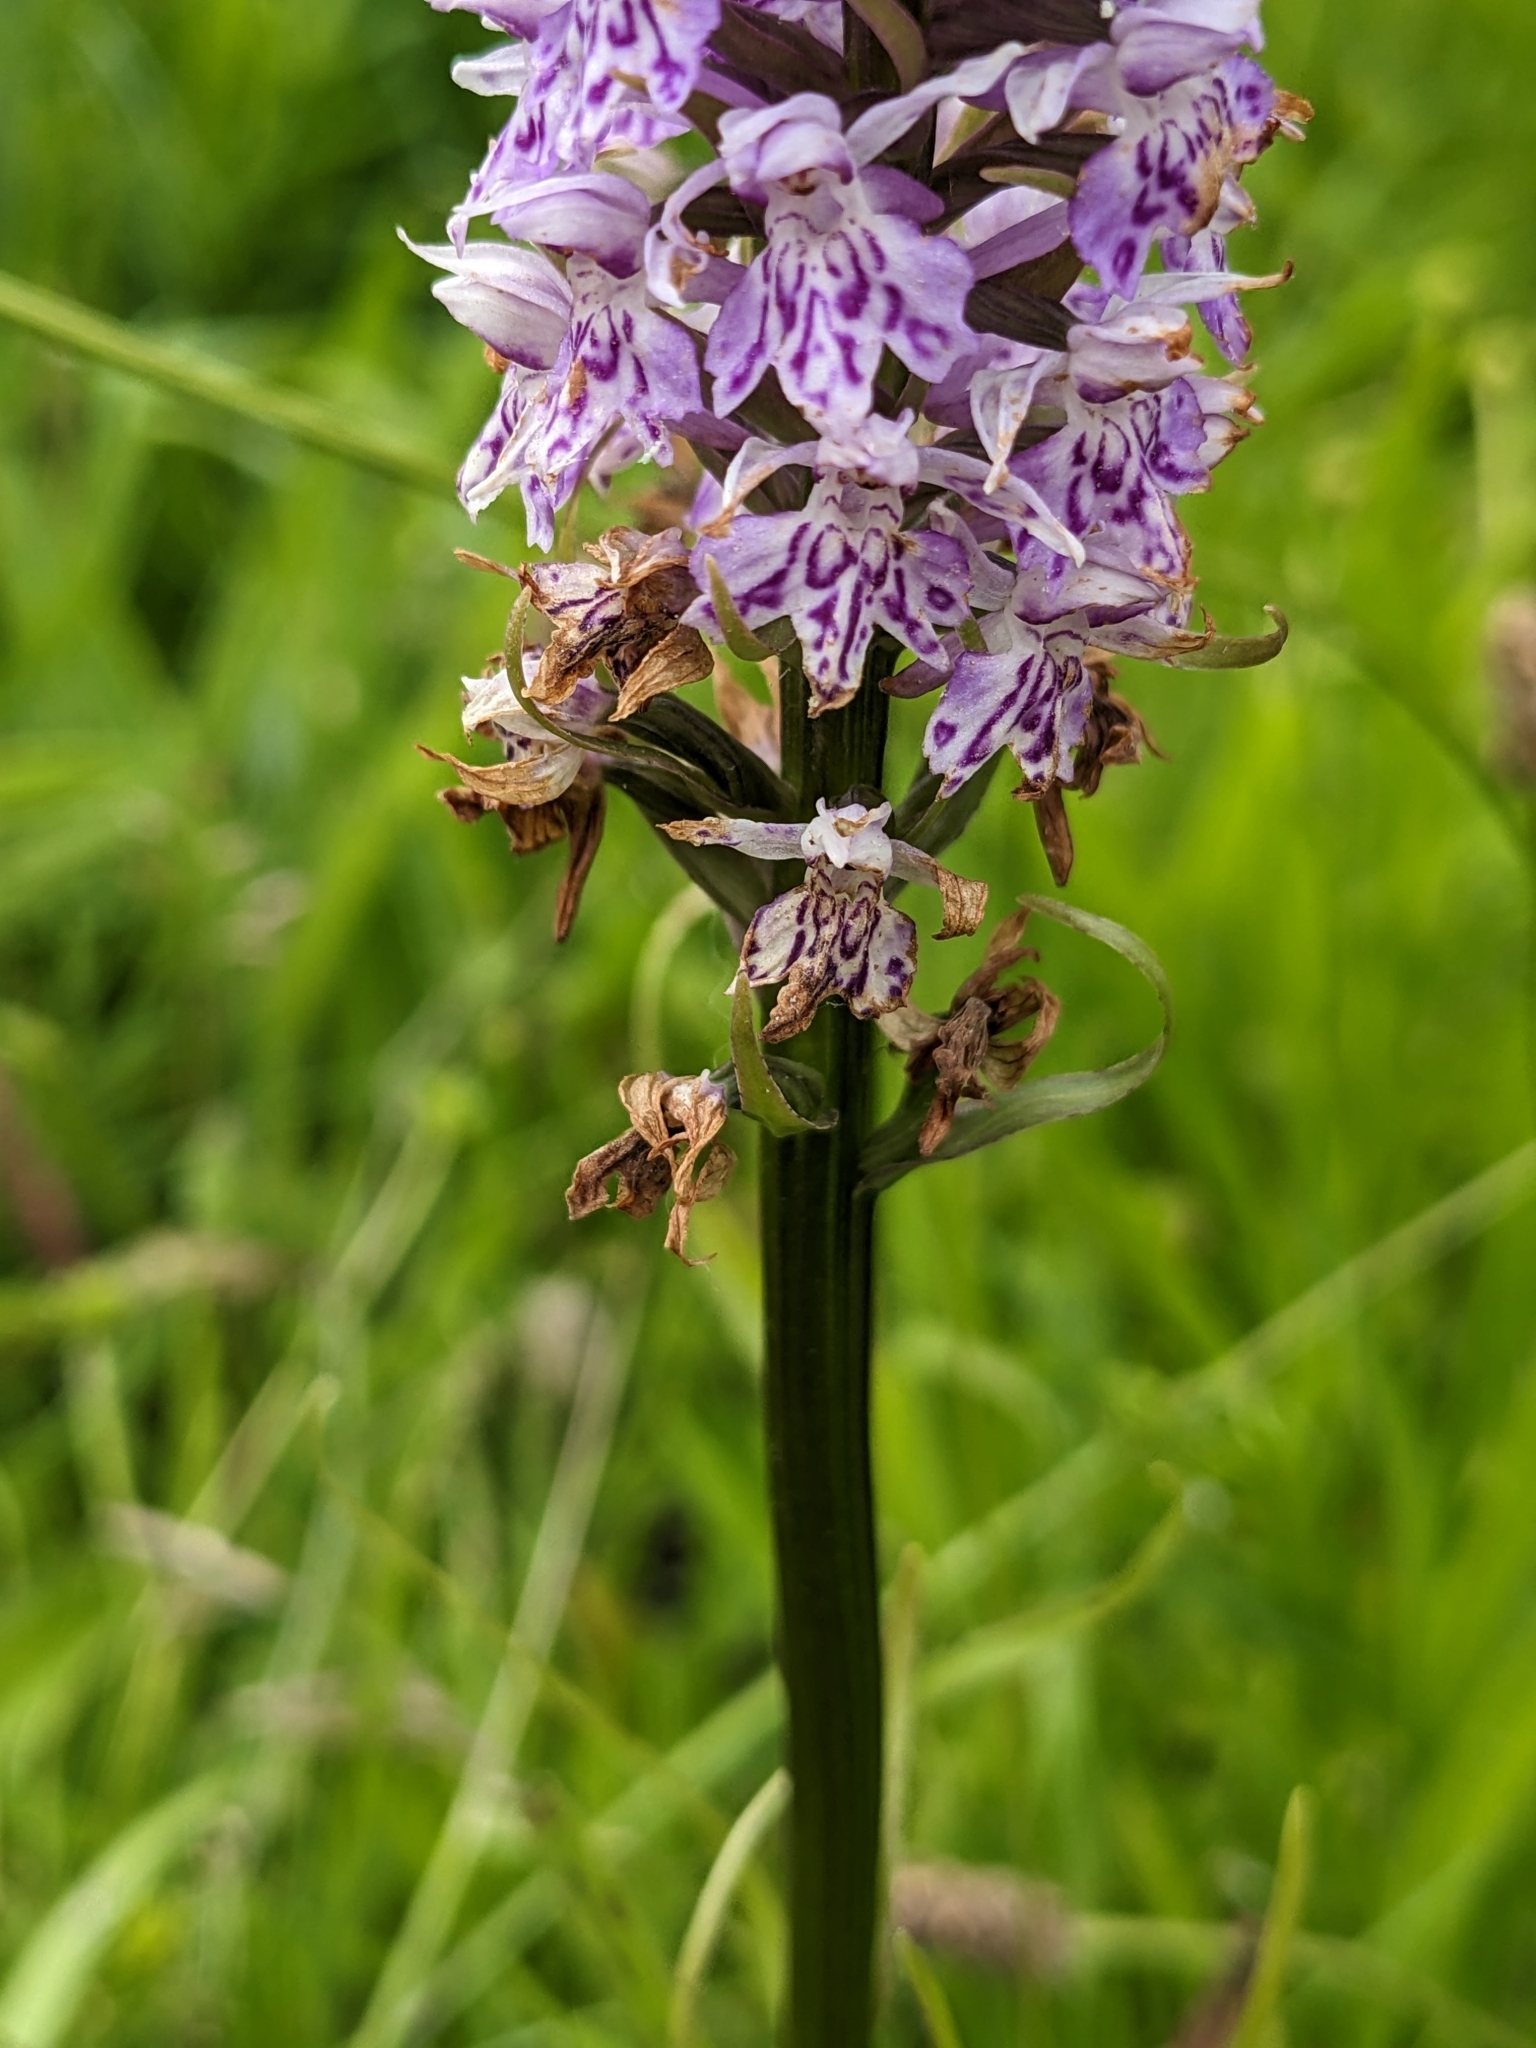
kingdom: Plantae
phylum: Tracheophyta
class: Liliopsida
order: Asparagales
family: Orchidaceae
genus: Dactylorhiza
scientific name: Dactylorhiza maculata
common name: Heath spotted-orchid
